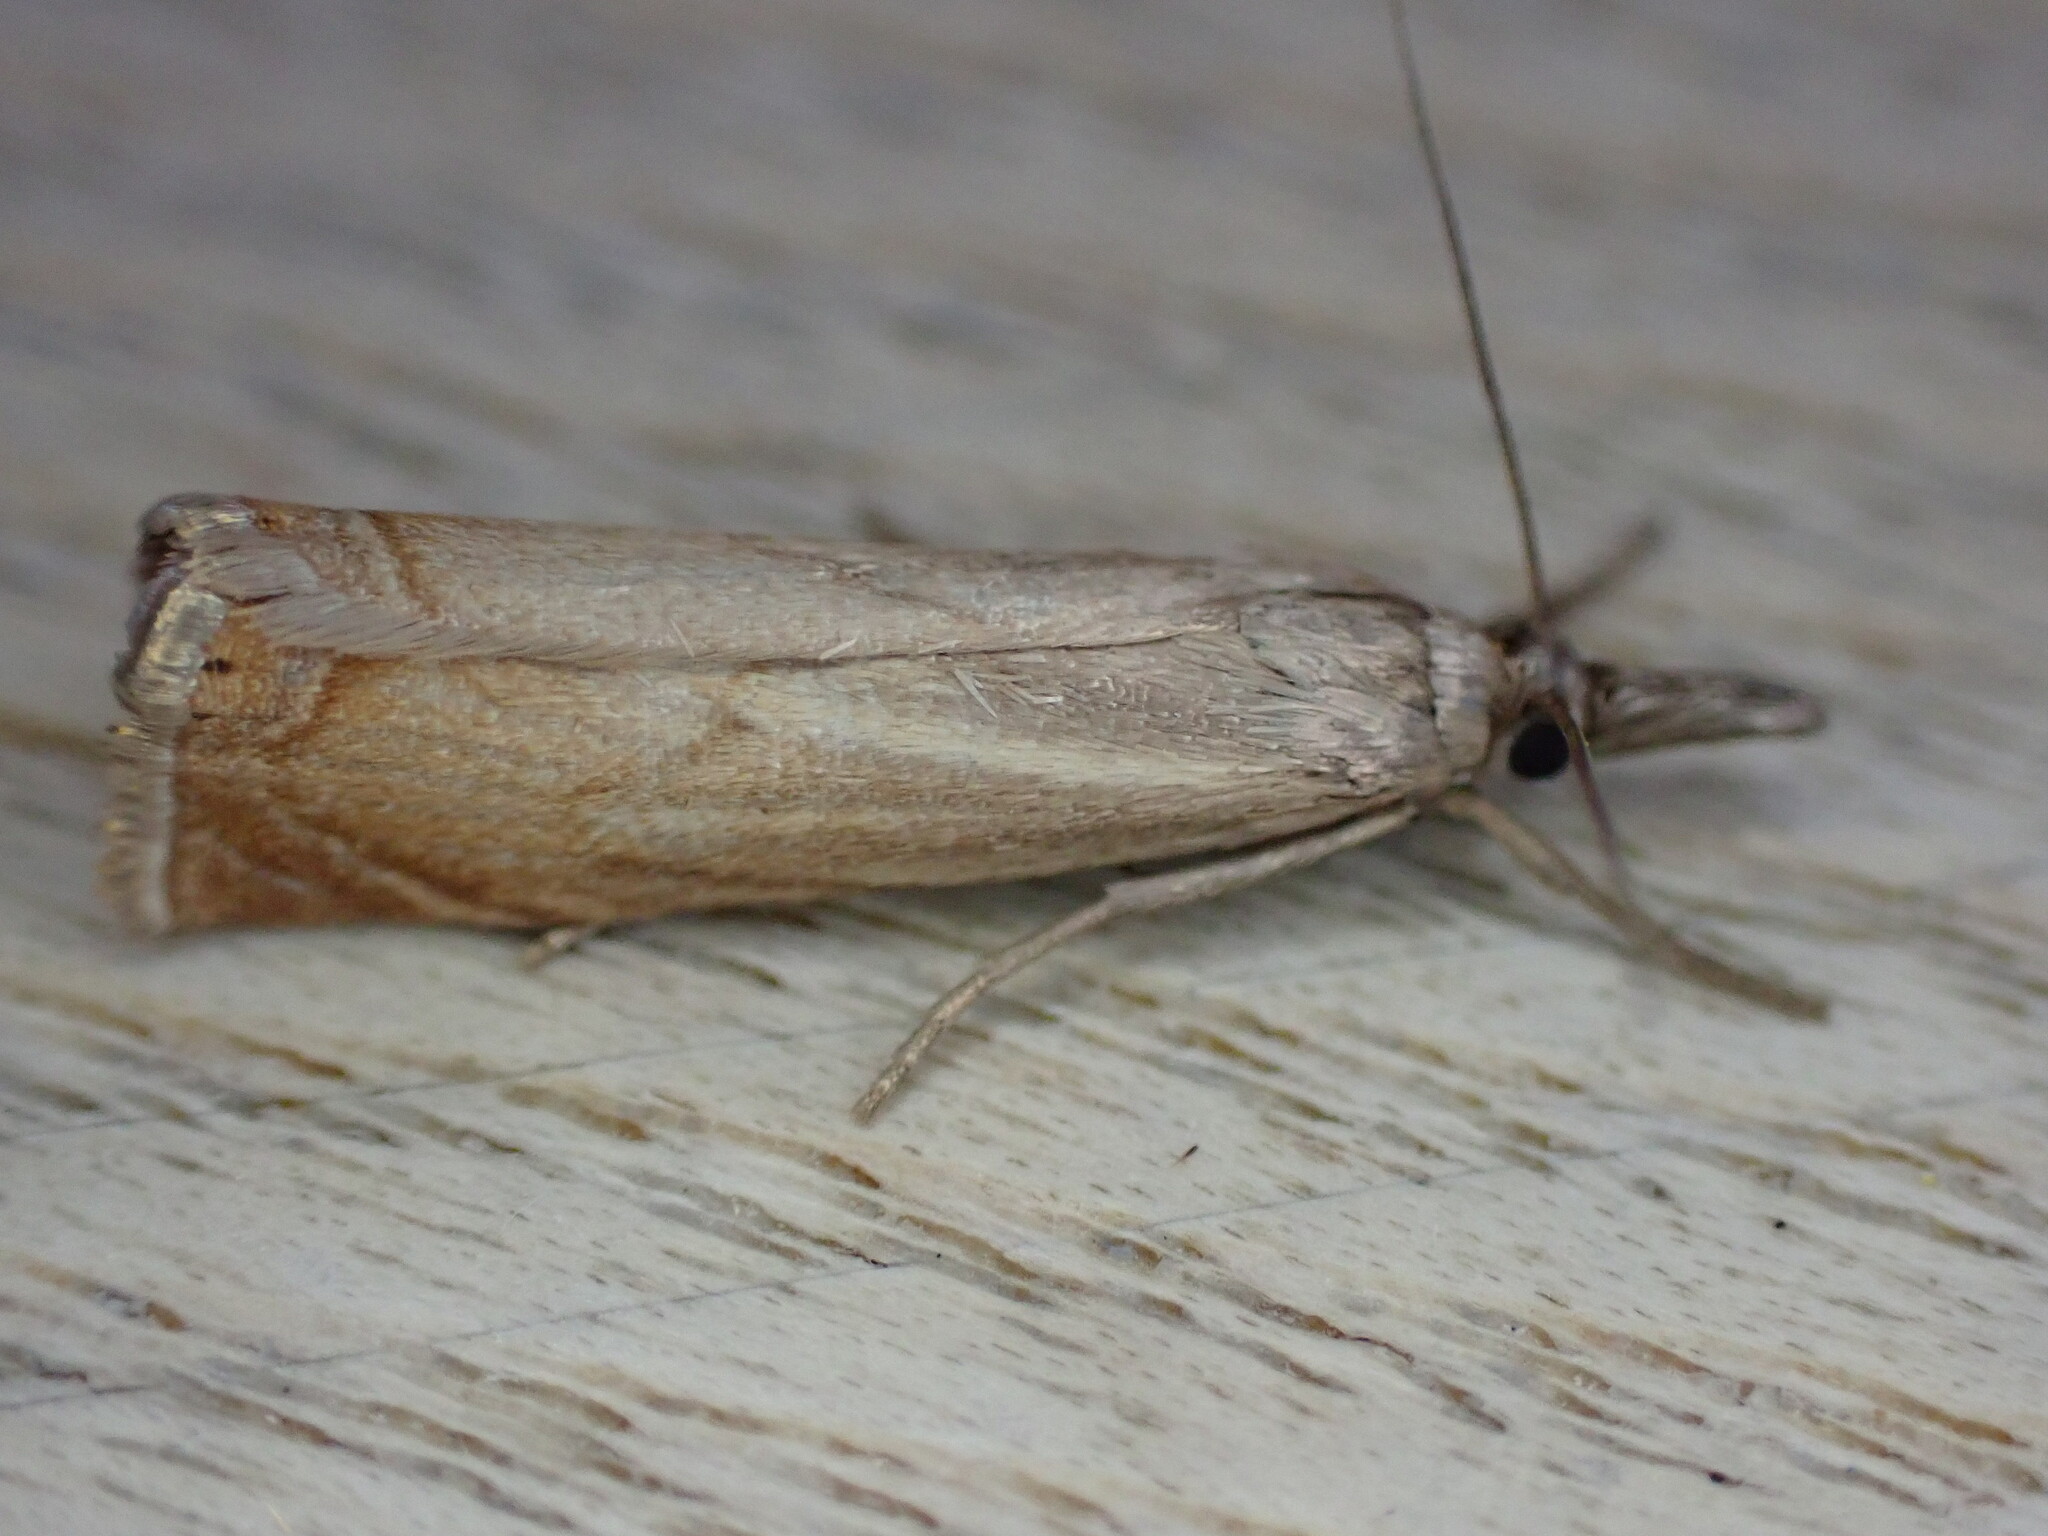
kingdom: Animalia
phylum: Arthropoda
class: Insecta
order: Lepidoptera
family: Crambidae
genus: Chrysoteuchia
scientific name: Chrysoteuchia culmella
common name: Garden grass-veneer
